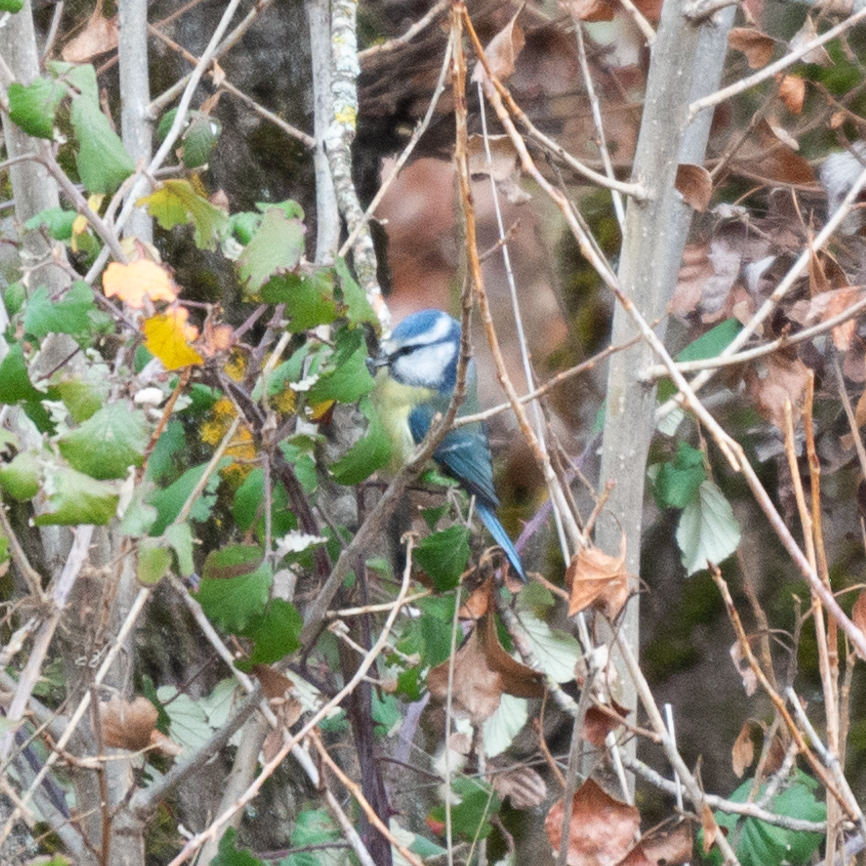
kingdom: Animalia
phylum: Chordata
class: Aves
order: Passeriformes
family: Paridae
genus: Cyanistes
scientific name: Cyanistes caeruleus
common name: Eurasian blue tit
